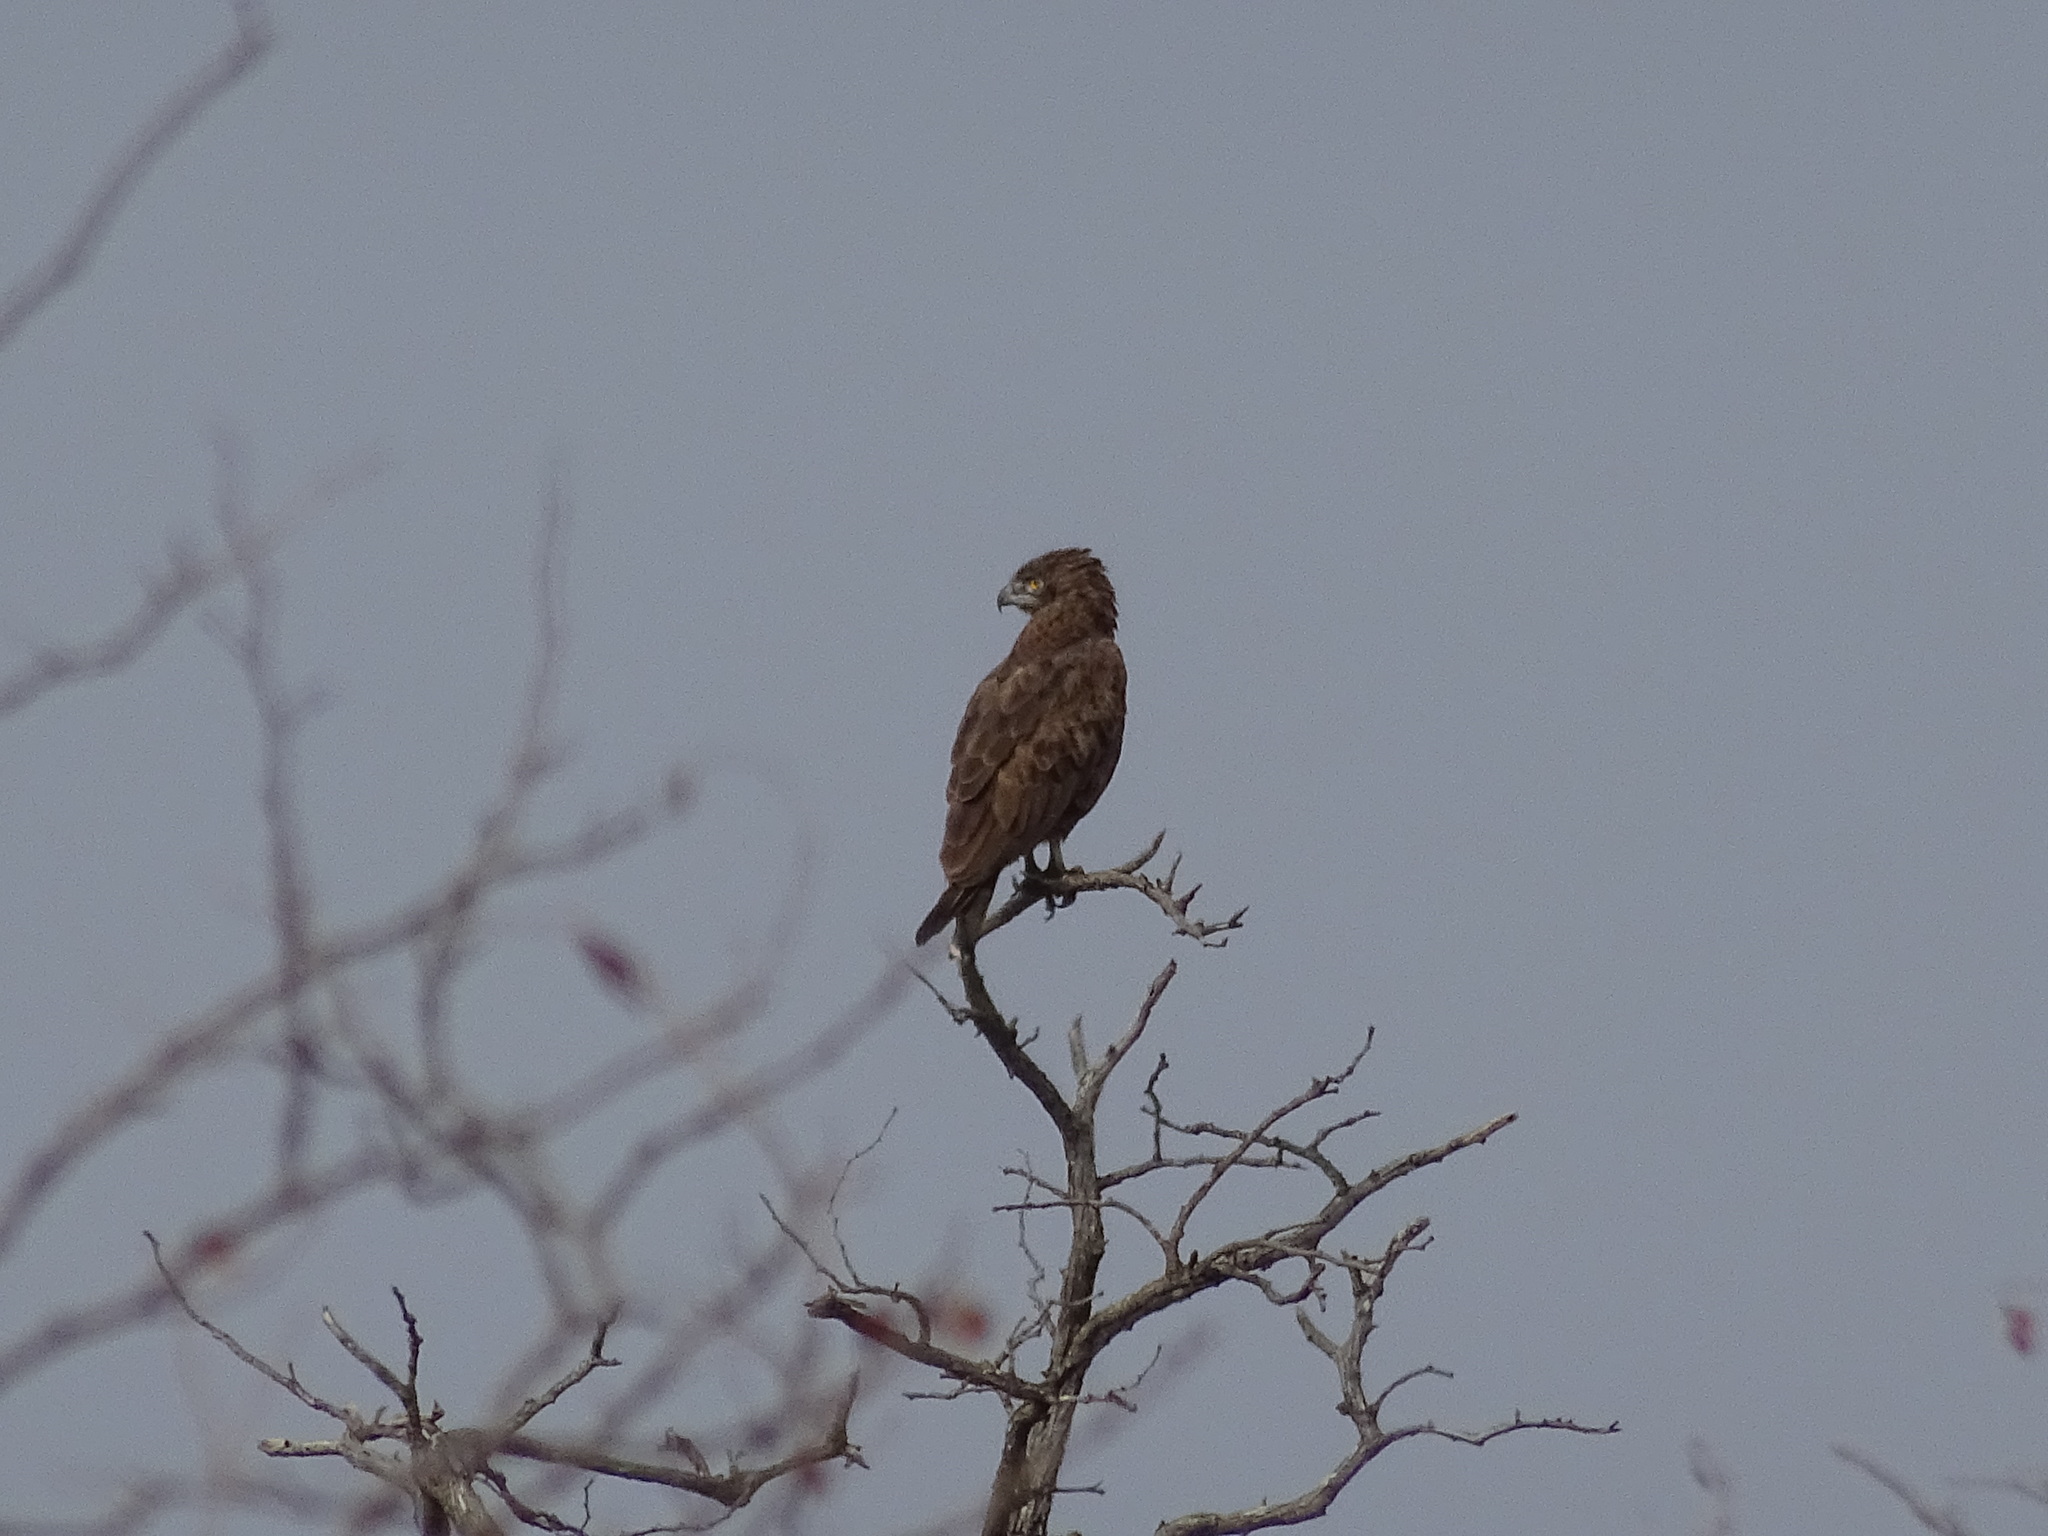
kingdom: Animalia
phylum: Chordata
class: Aves
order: Accipitriformes
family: Accipitridae
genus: Circaetus
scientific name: Circaetus cinereus
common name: Brown snake eagle
